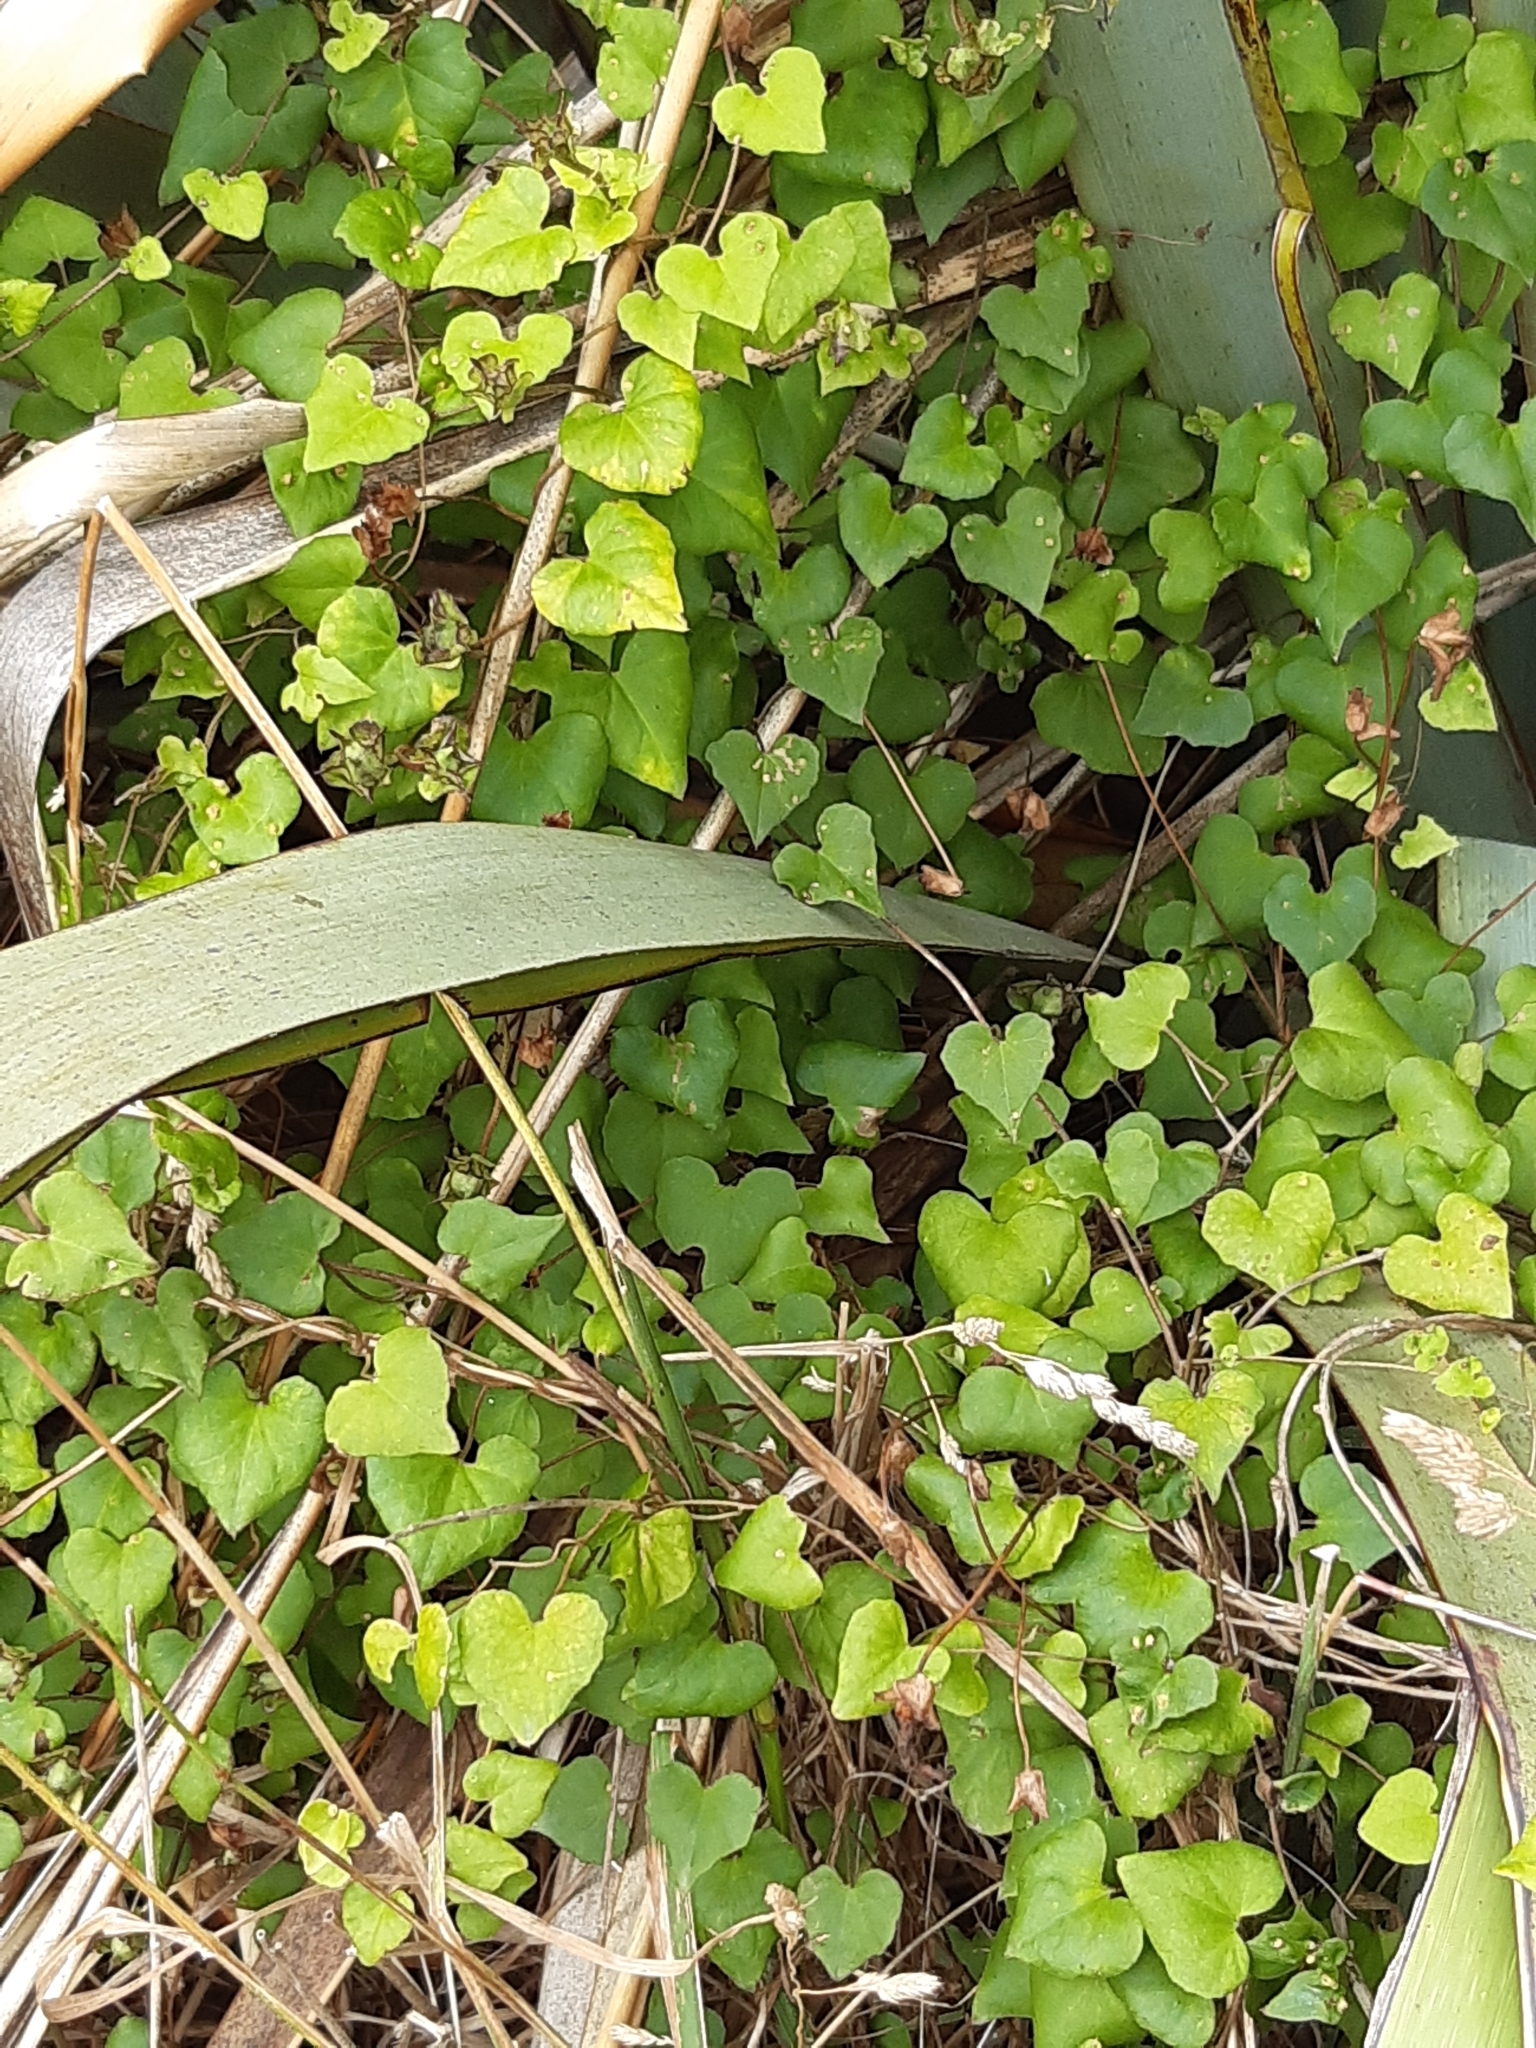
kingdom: Plantae
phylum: Tracheophyta
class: Magnoliopsida
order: Caryophyllales
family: Polygonaceae
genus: Muehlenbeckia
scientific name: Muehlenbeckia australis
